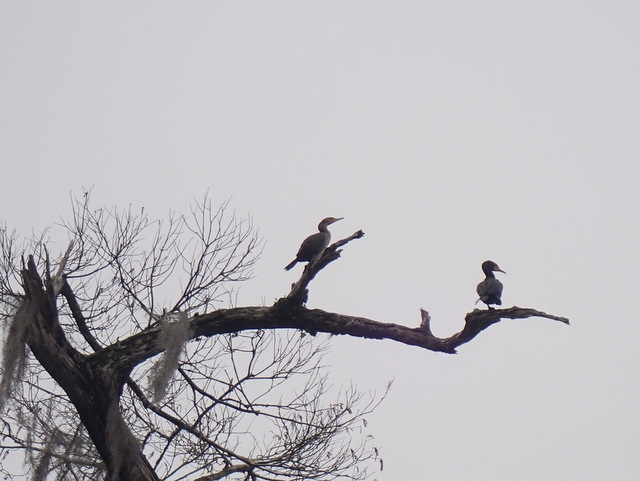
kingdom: Animalia
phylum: Chordata
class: Aves
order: Suliformes
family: Phalacrocoracidae
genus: Phalacrocorax
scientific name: Phalacrocorax auritus
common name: Double-crested cormorant
